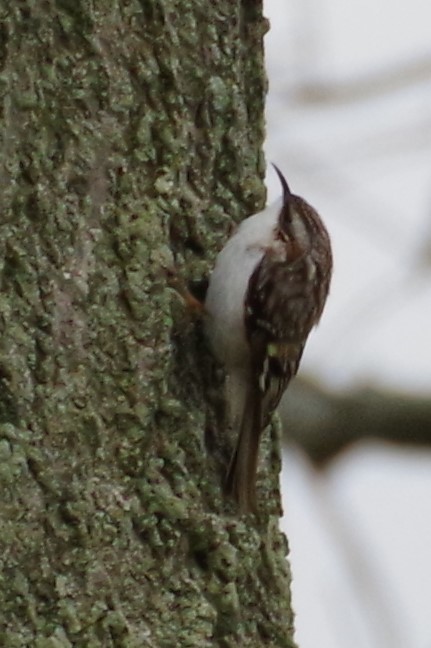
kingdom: Animalia
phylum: Chordata
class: Aves
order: Passeriformes
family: Certhiidae
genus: Certhia
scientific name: Certhia americana
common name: Brown creeper
